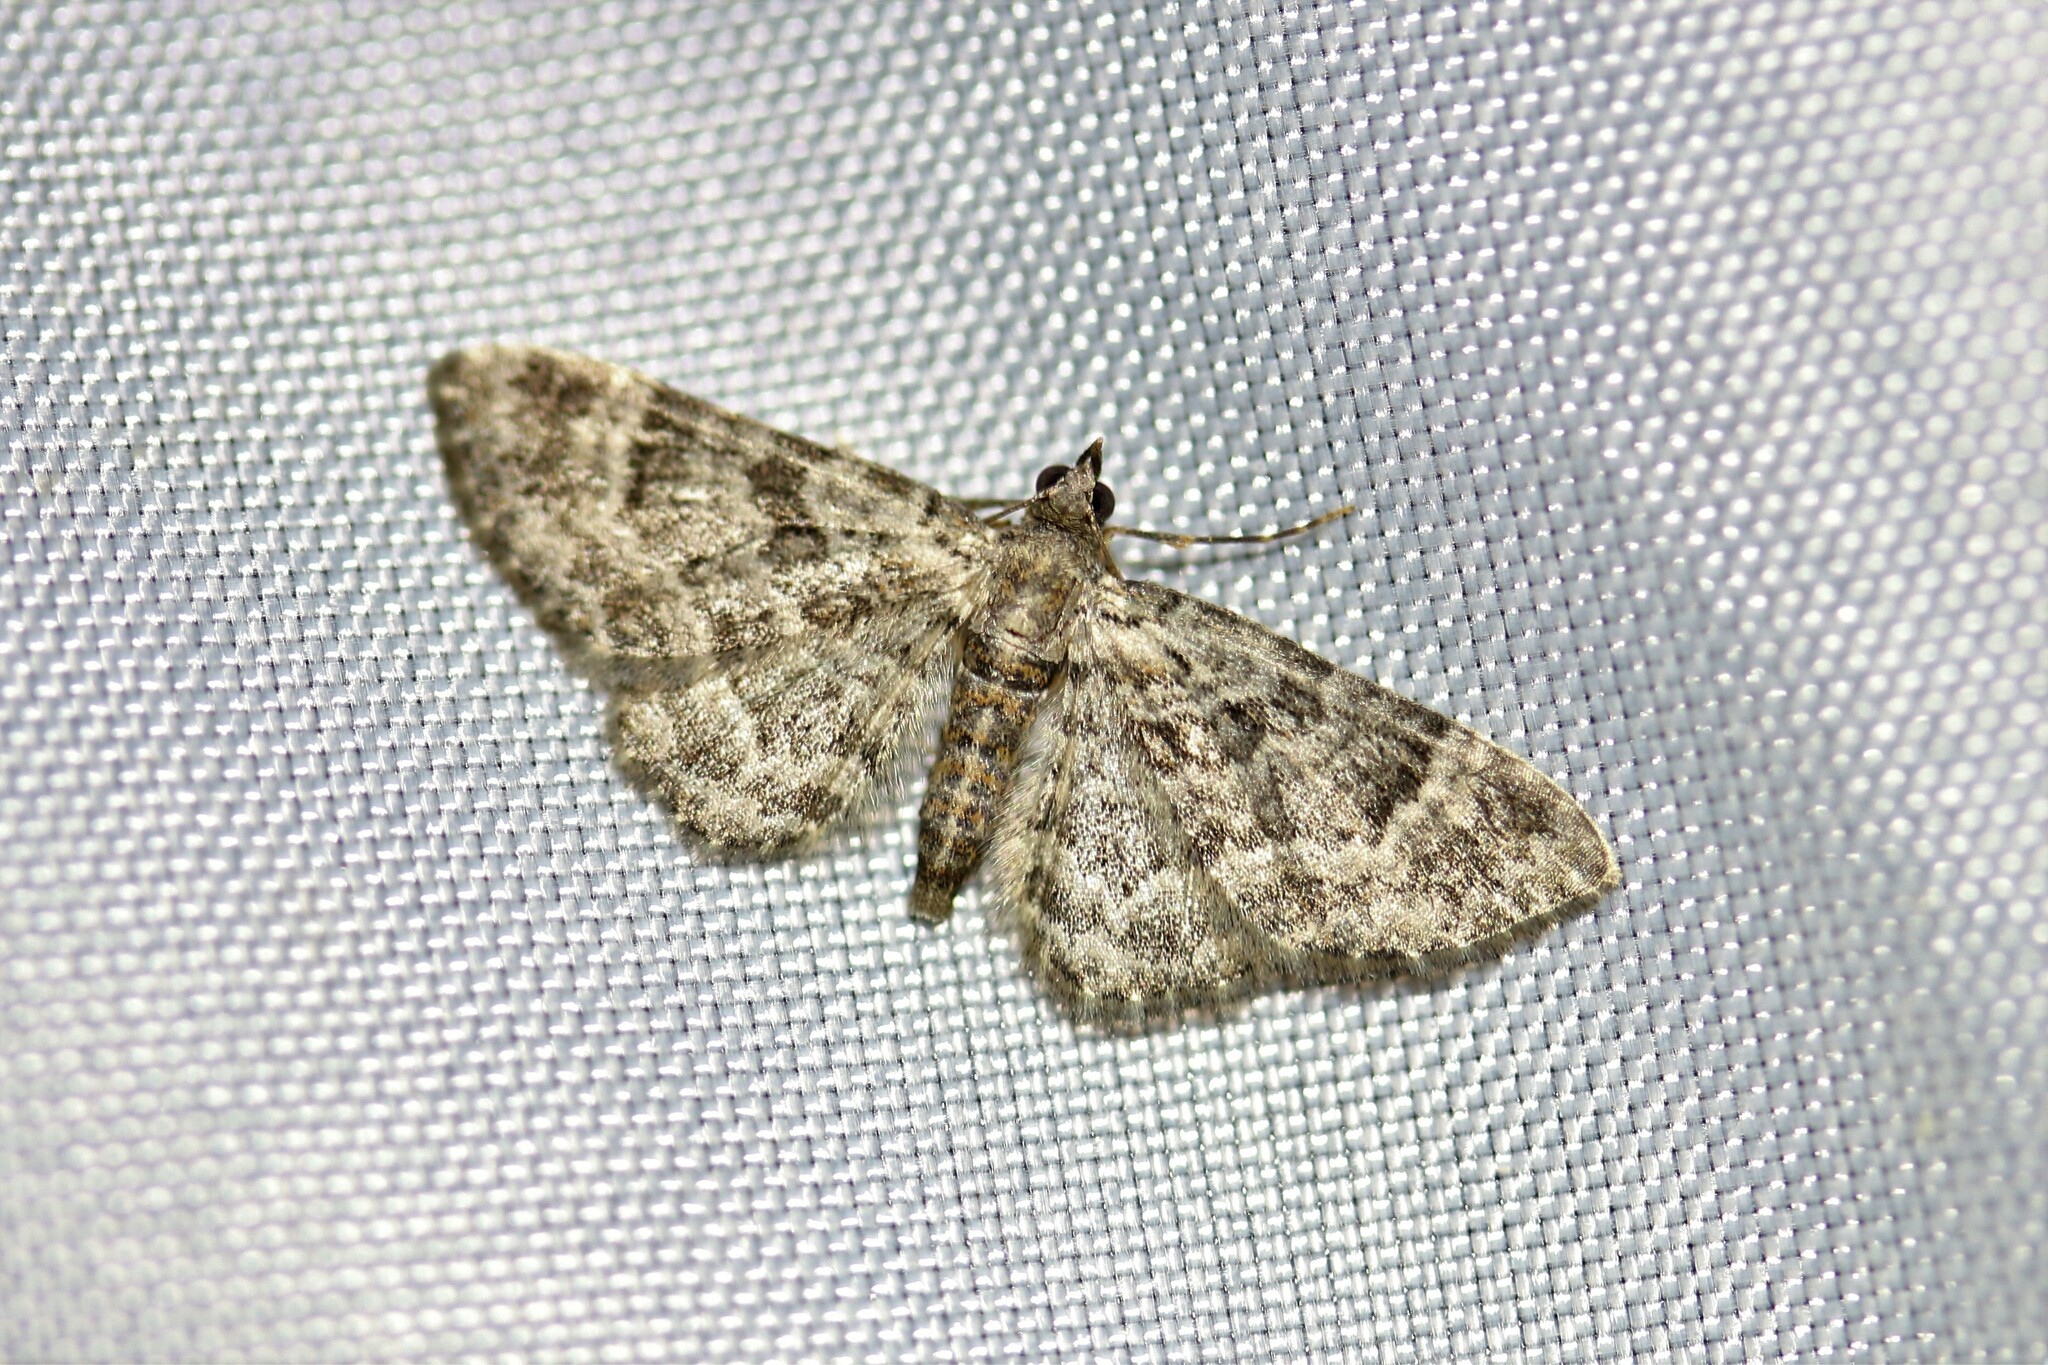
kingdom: Animalia
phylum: Arthropoda
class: Insecta
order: Lepidoptera
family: Geometridae
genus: Gymnoscelis
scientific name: Gymnoscelis rufifasciata
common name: Double-striped pug
